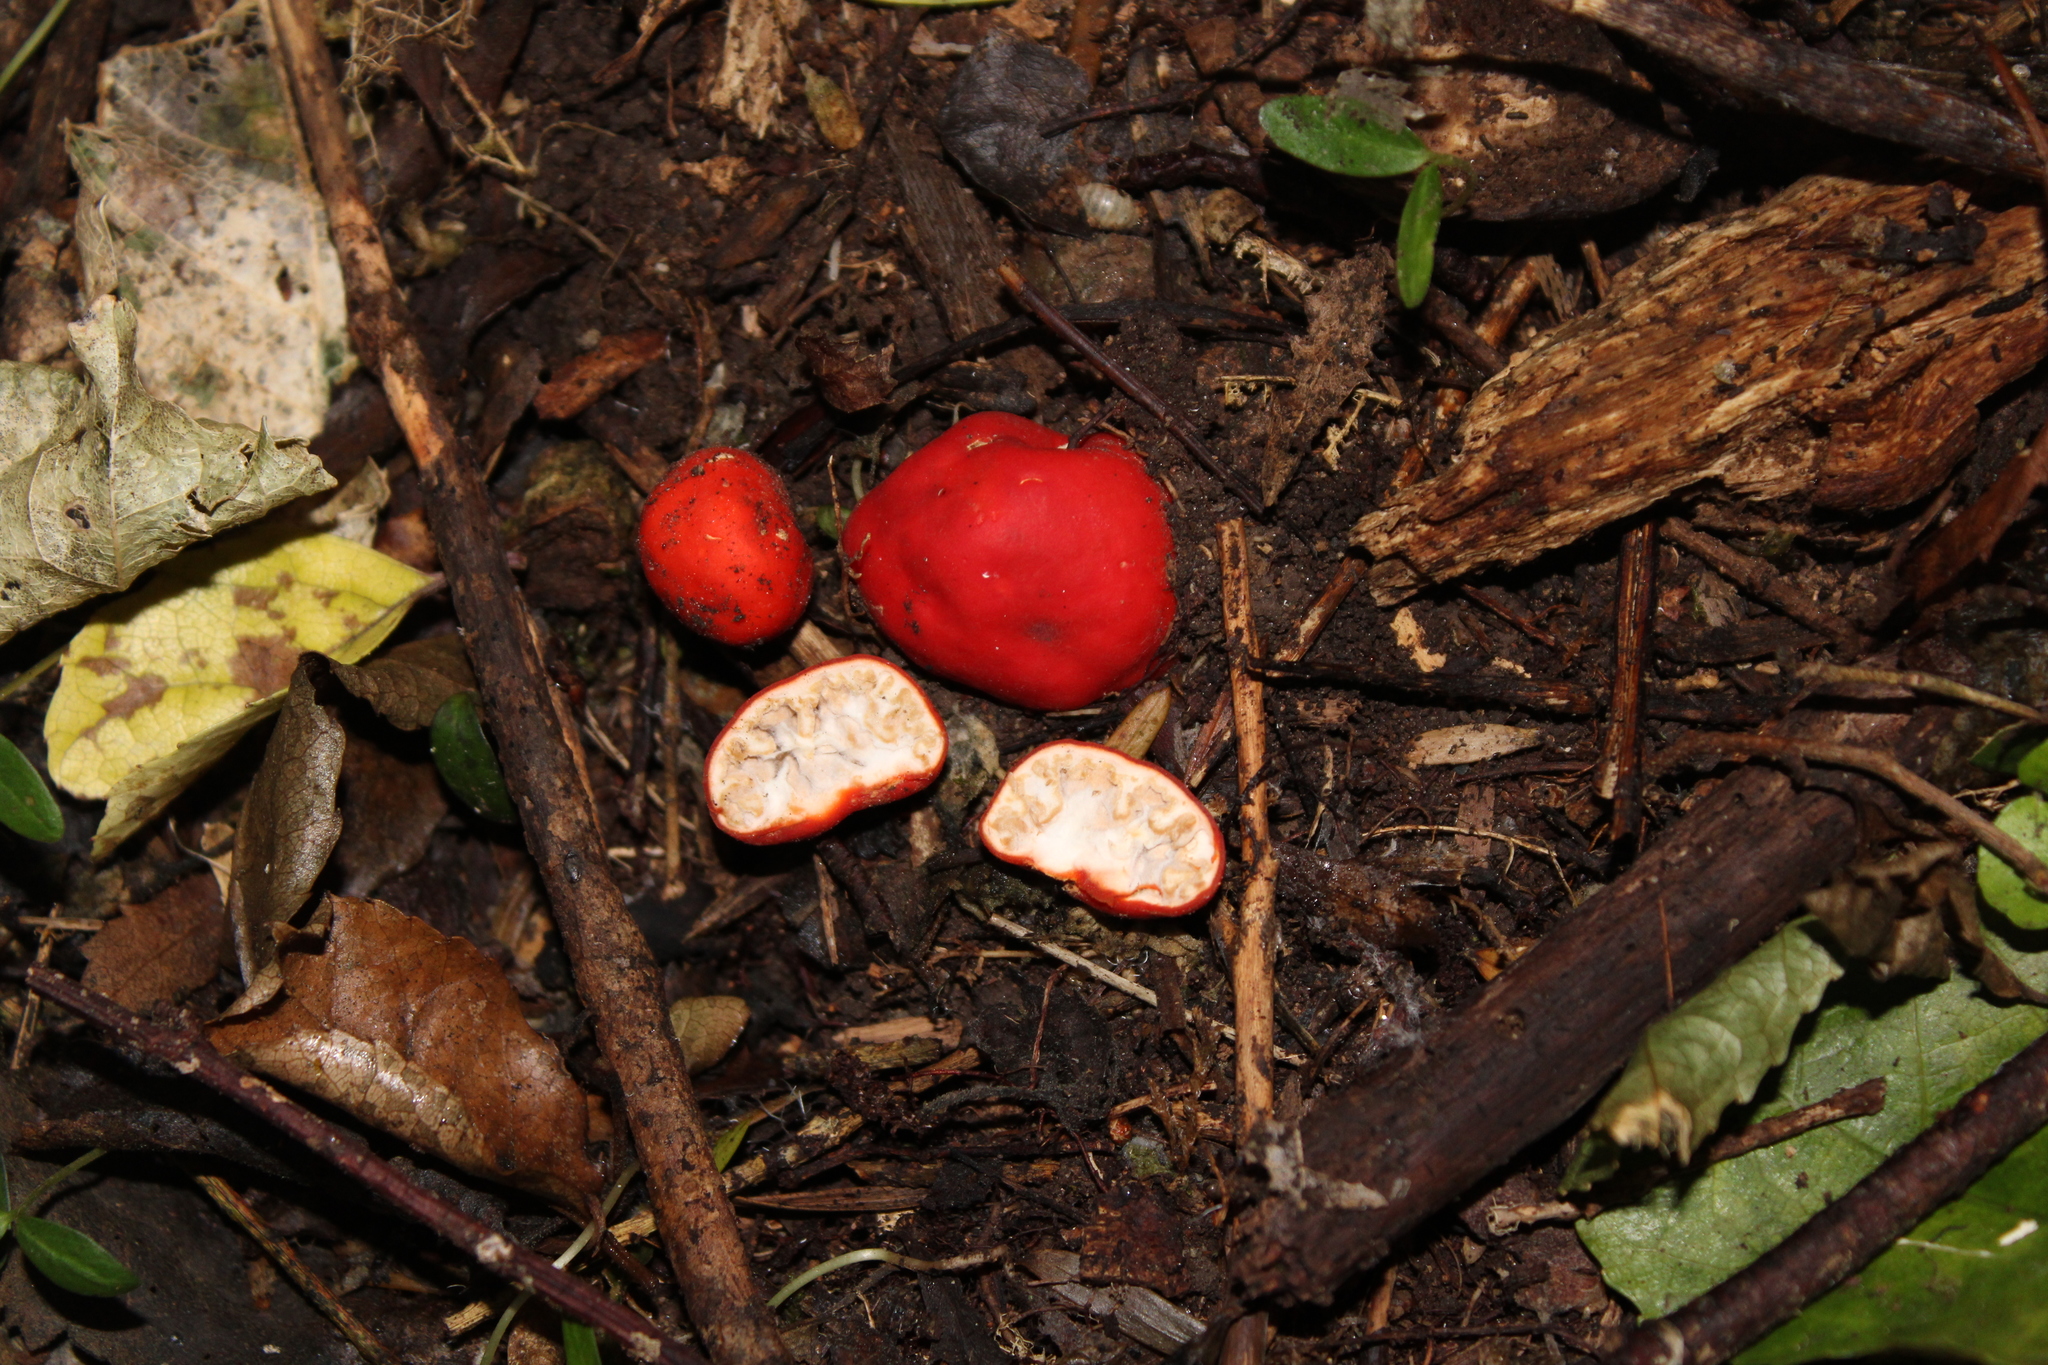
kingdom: Fungi
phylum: Ascomycota
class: Pezizomycetes
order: Pezizales
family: Pyronemataceae
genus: Paurocotylis
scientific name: Paurocotylis pila
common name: Scarlet berry truffle
